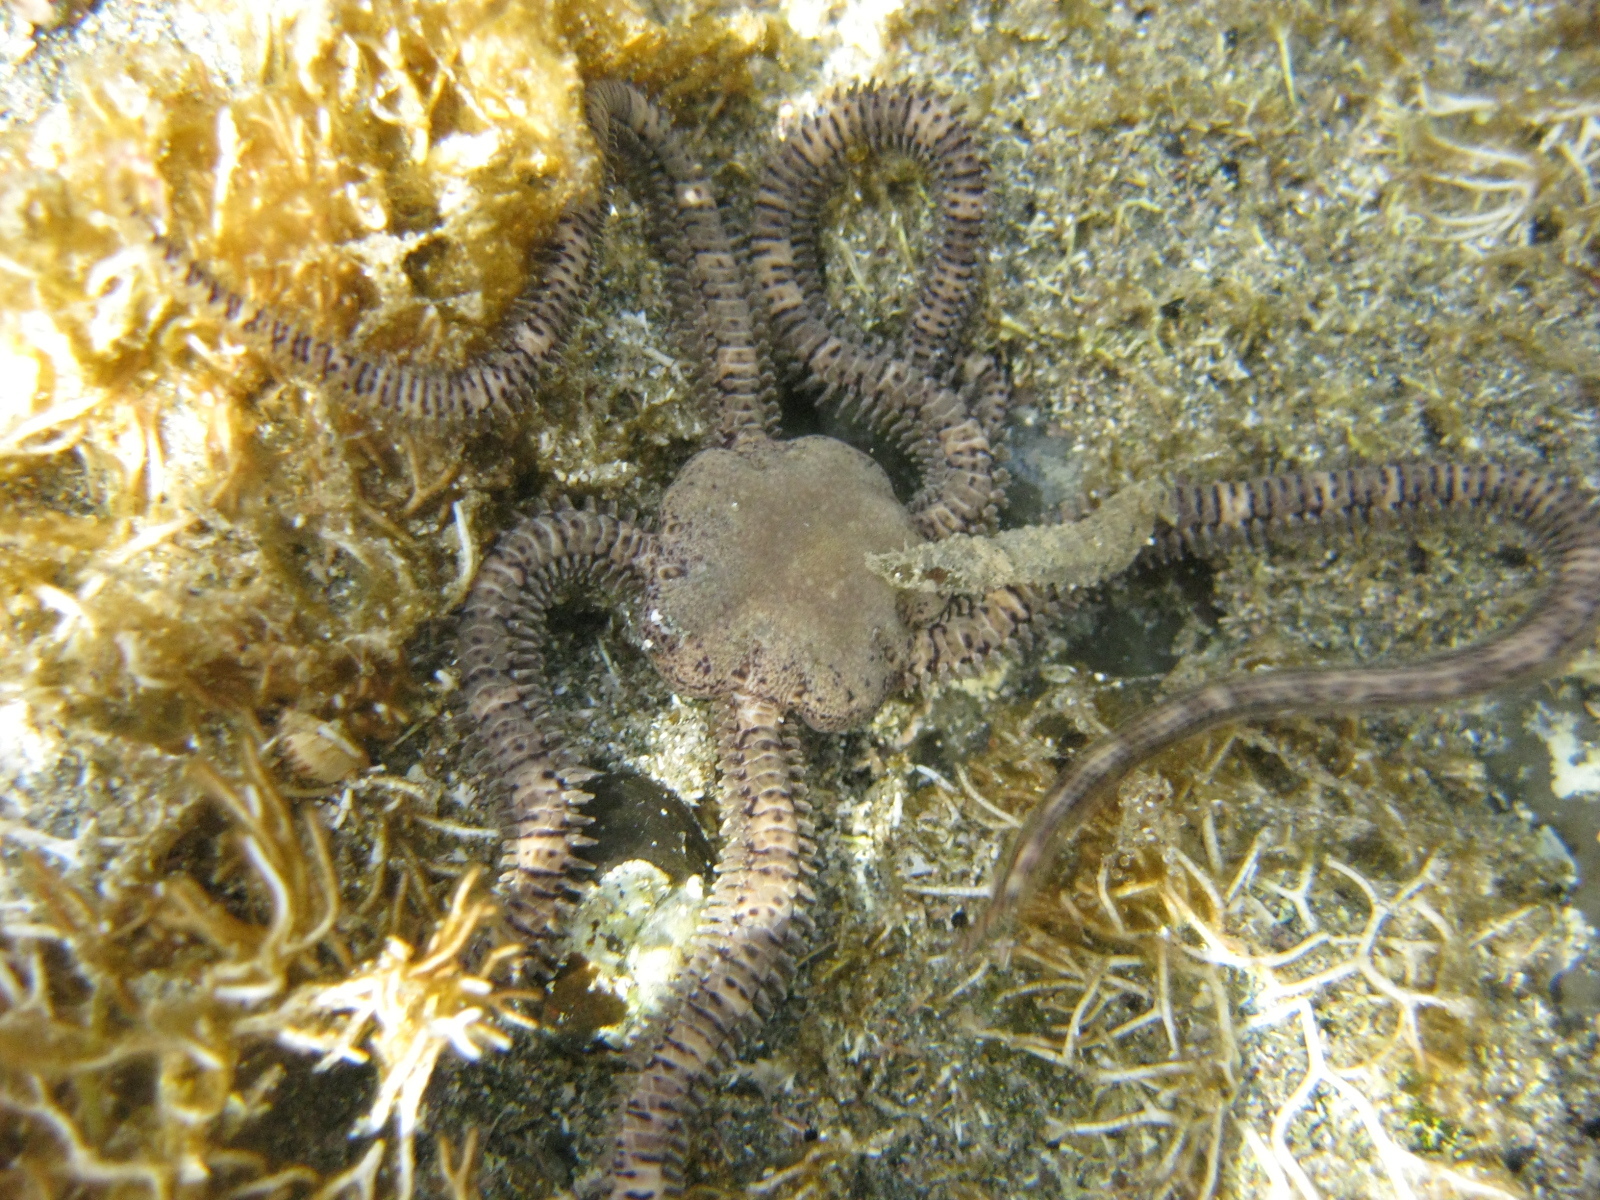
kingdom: Animalia
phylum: Echinodermata
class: Ophiuroidea
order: Amphilepidida
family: Ophionereididae
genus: Ophionereis
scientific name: Ophionereis fasciata
